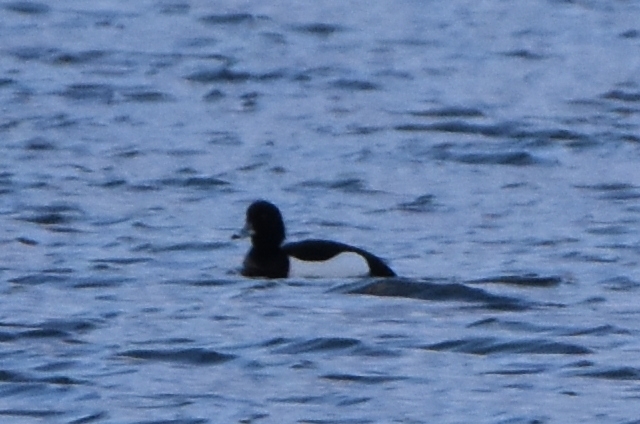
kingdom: Animalia
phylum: Chordata
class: Aves
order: Anseriformes
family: Anatidae
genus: Aythya
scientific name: Aythya fuligula
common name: Tufted duck
